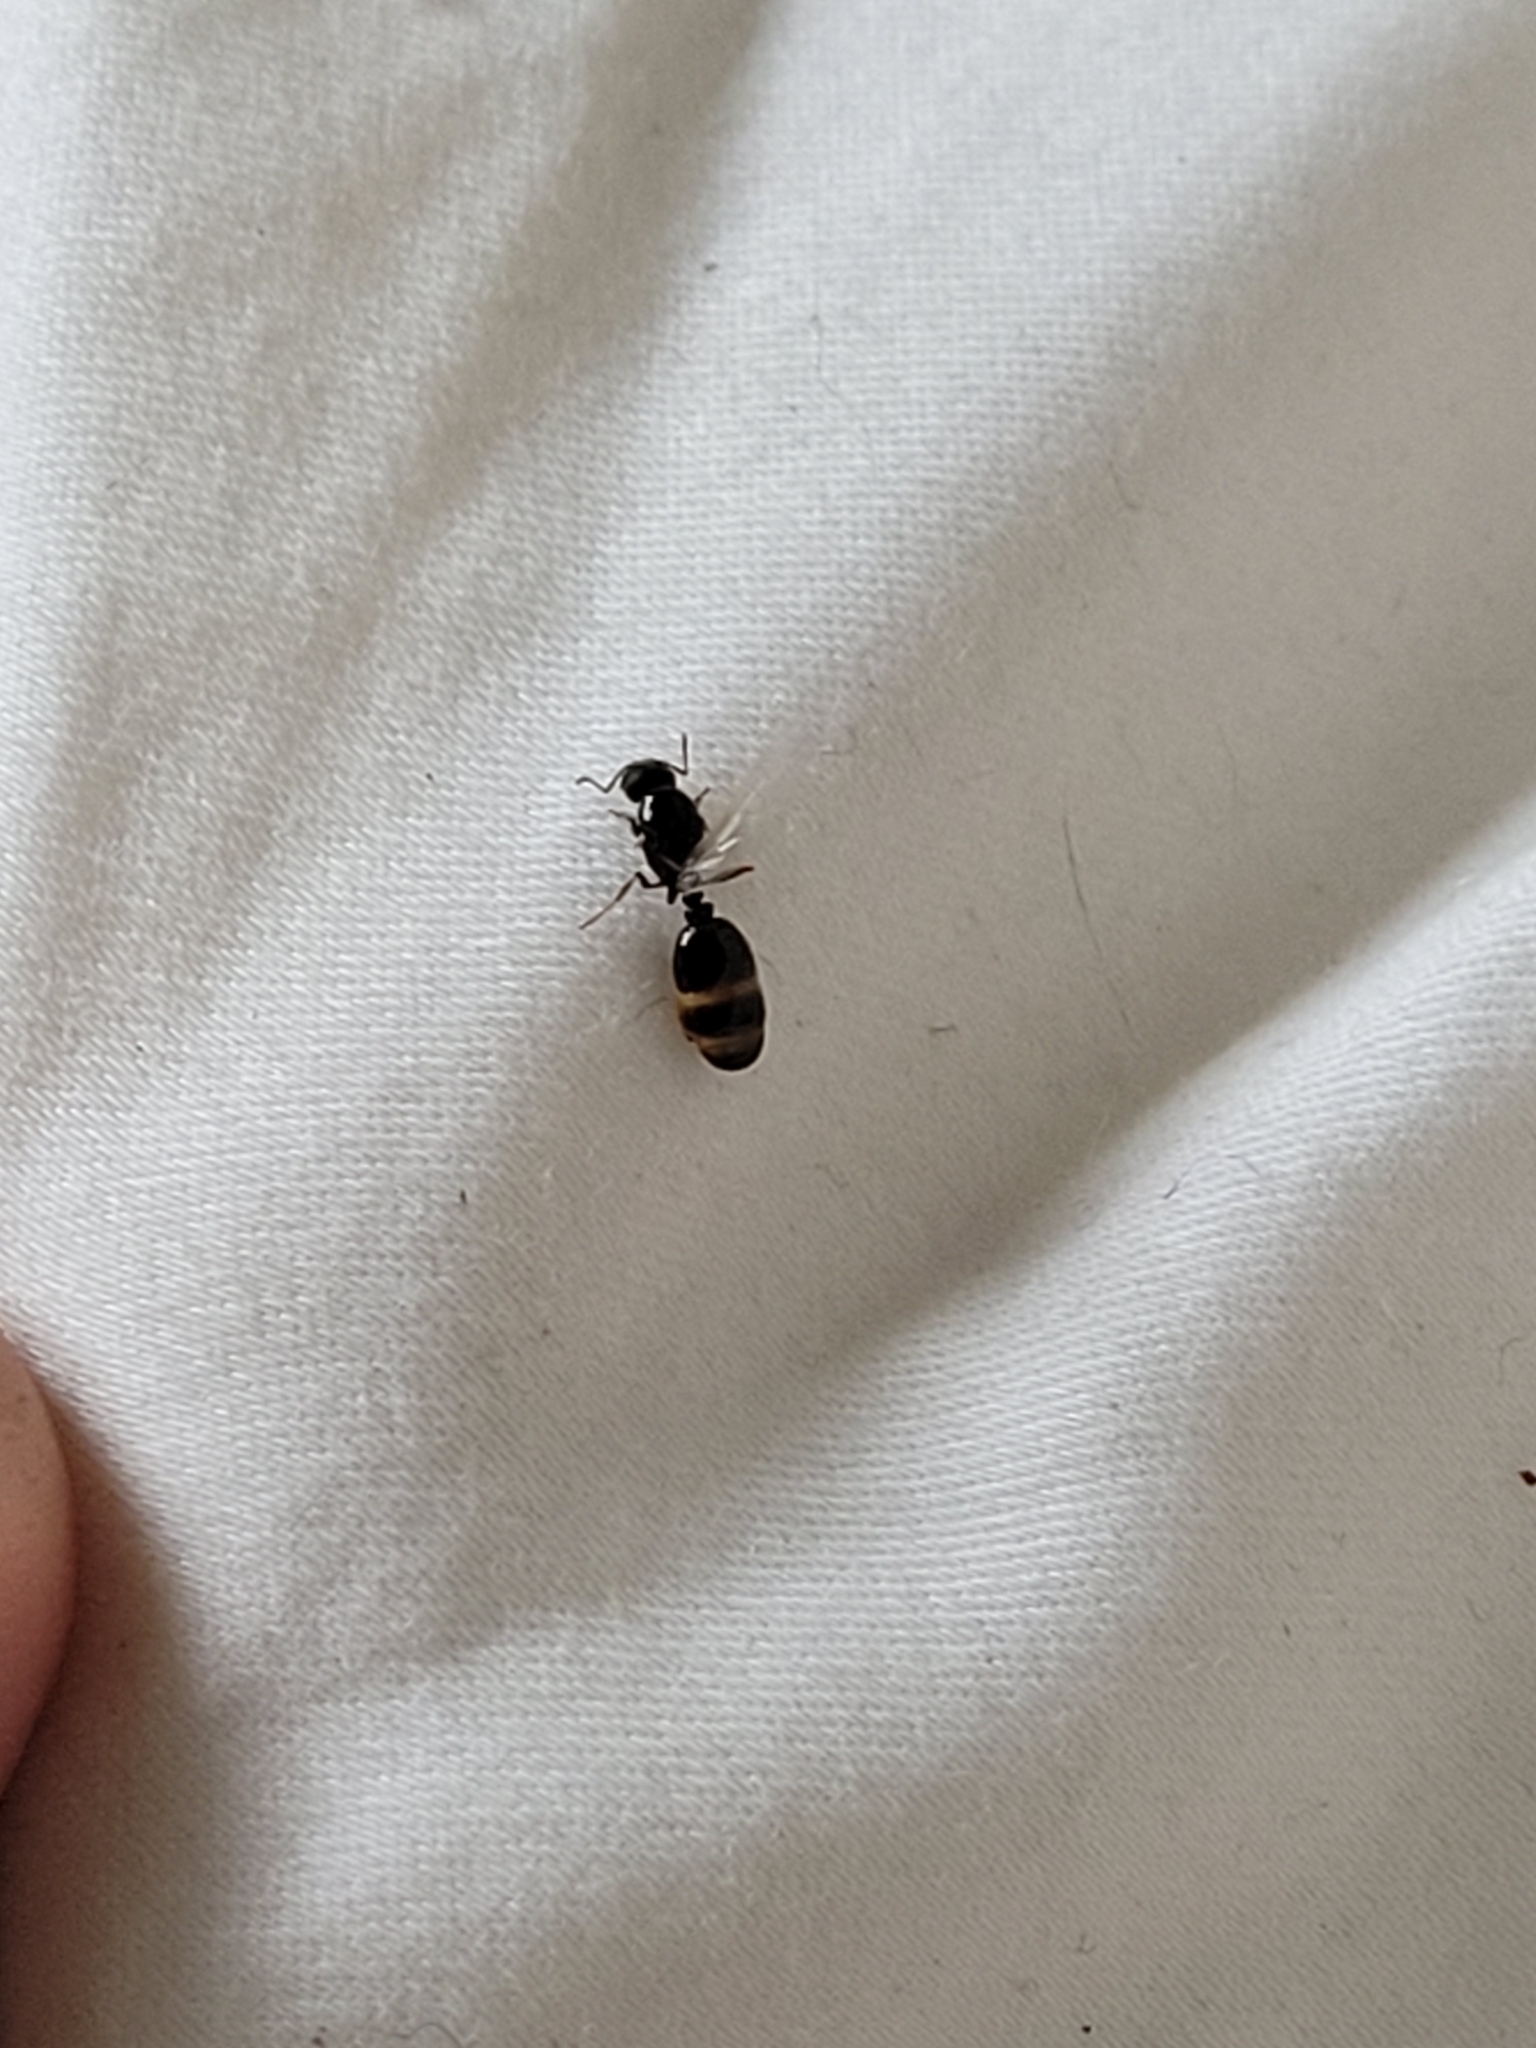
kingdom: Animalia
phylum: Arthropoda
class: Insecta
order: Hymenoptera
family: Formicidae
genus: Tetramorium
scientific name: Tetramorium immigrans
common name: Pavement ant
